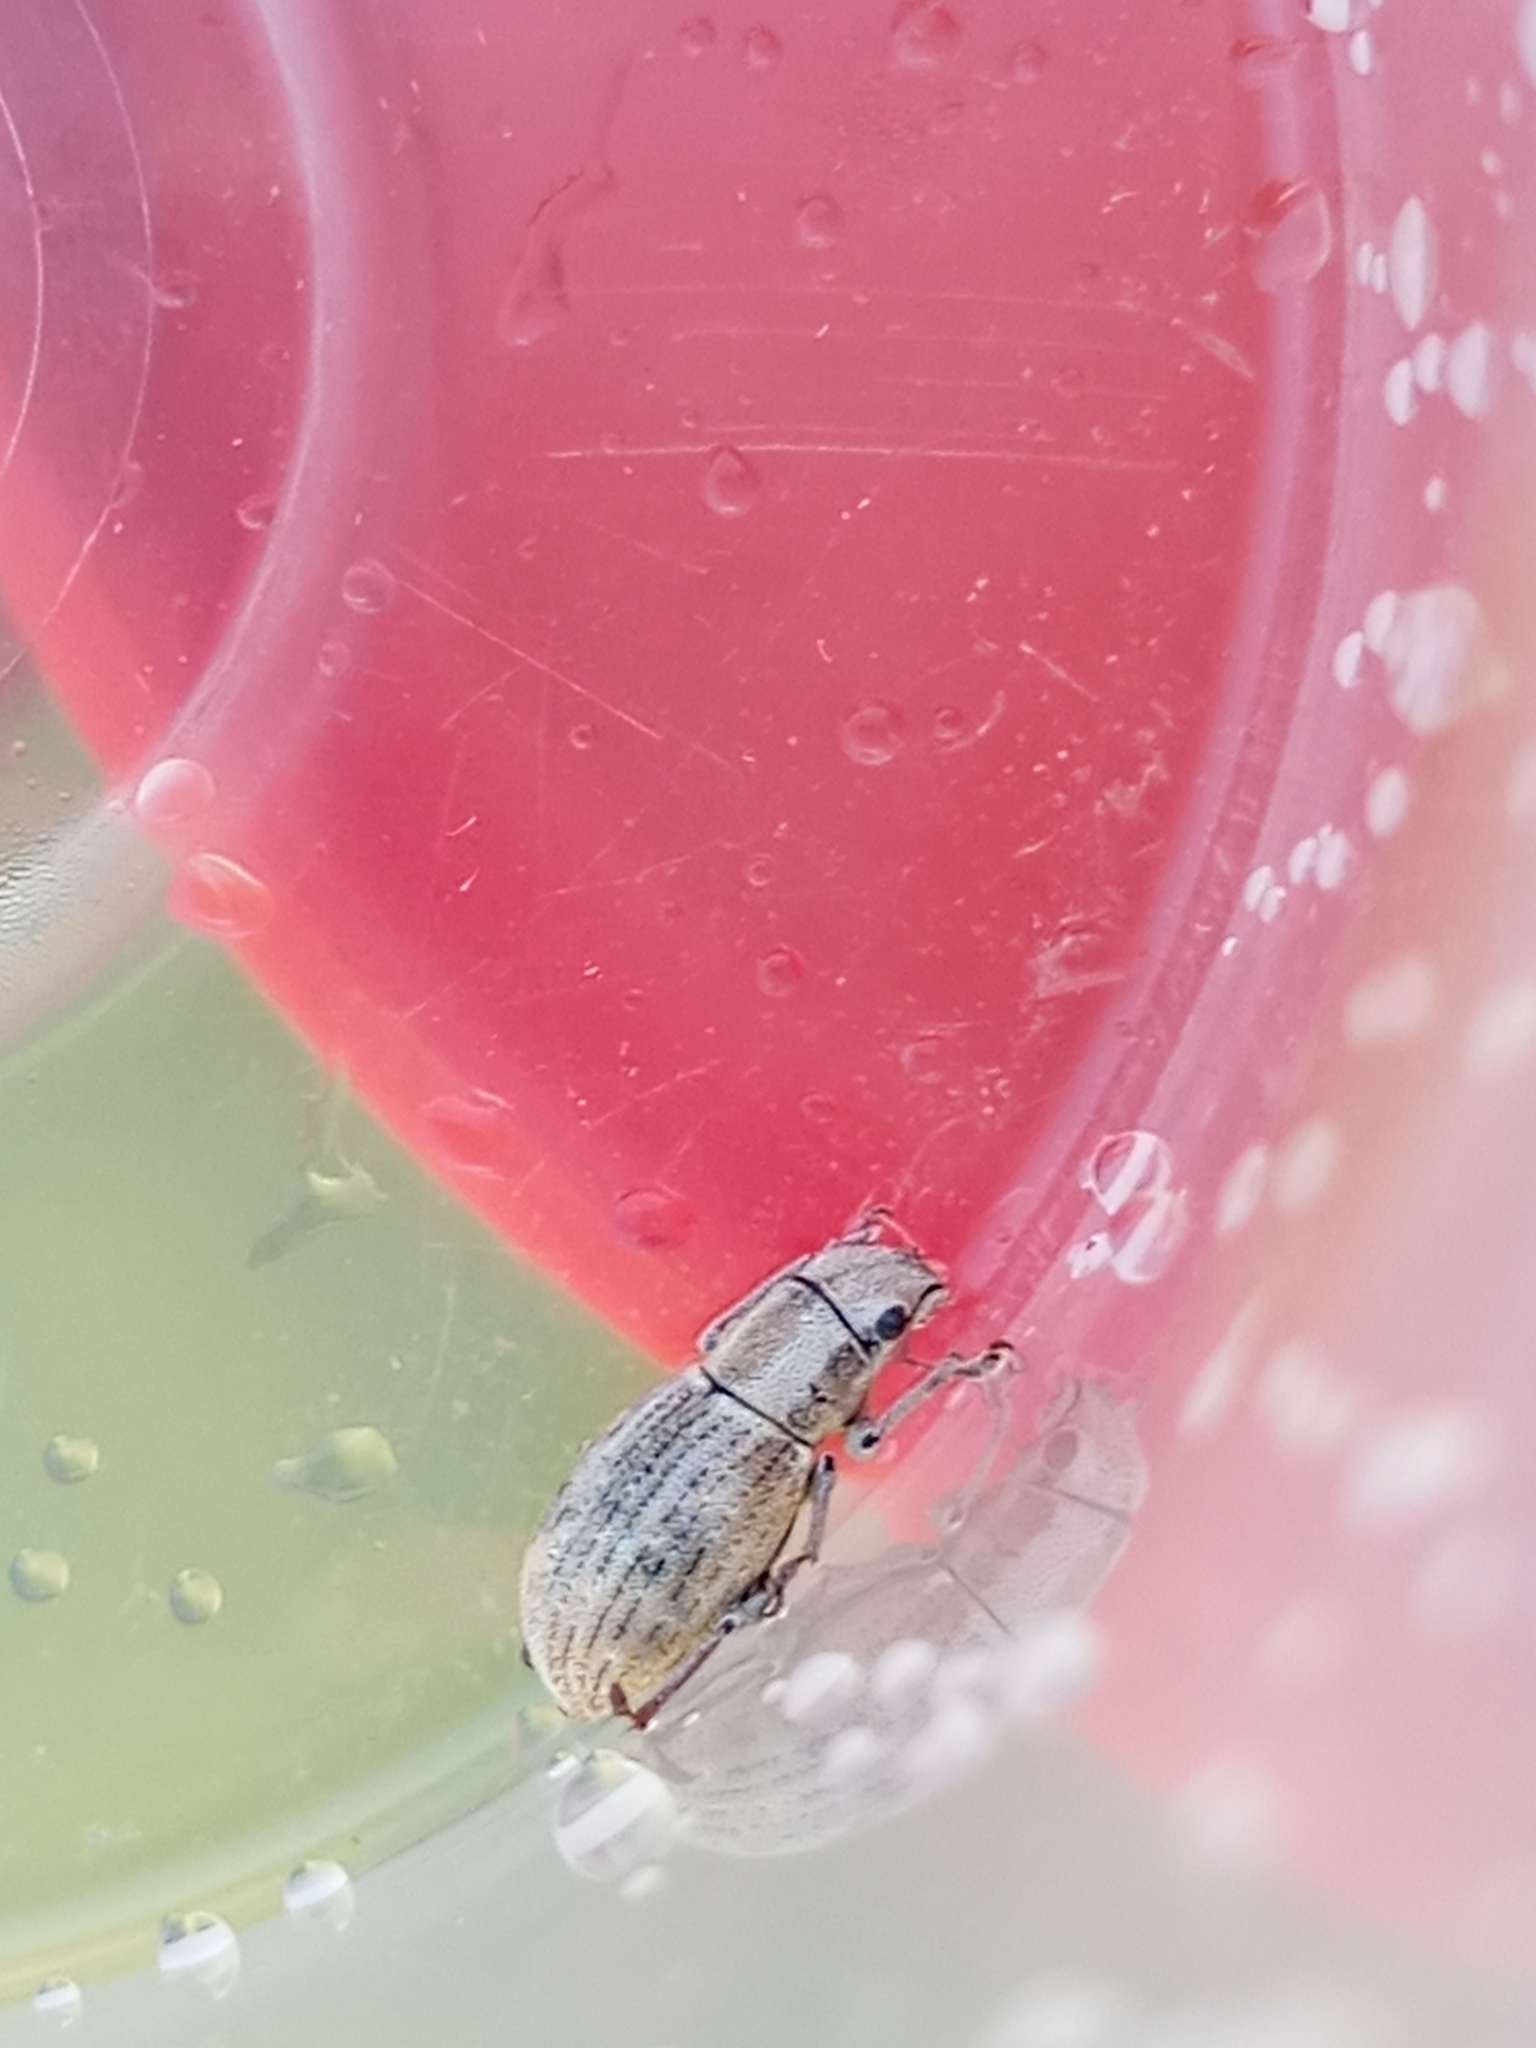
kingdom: Animalia
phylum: Arthropoda
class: Insecta
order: Coleoptera
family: Curculionidae
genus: Aramigus
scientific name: Aramigus tessellatus
